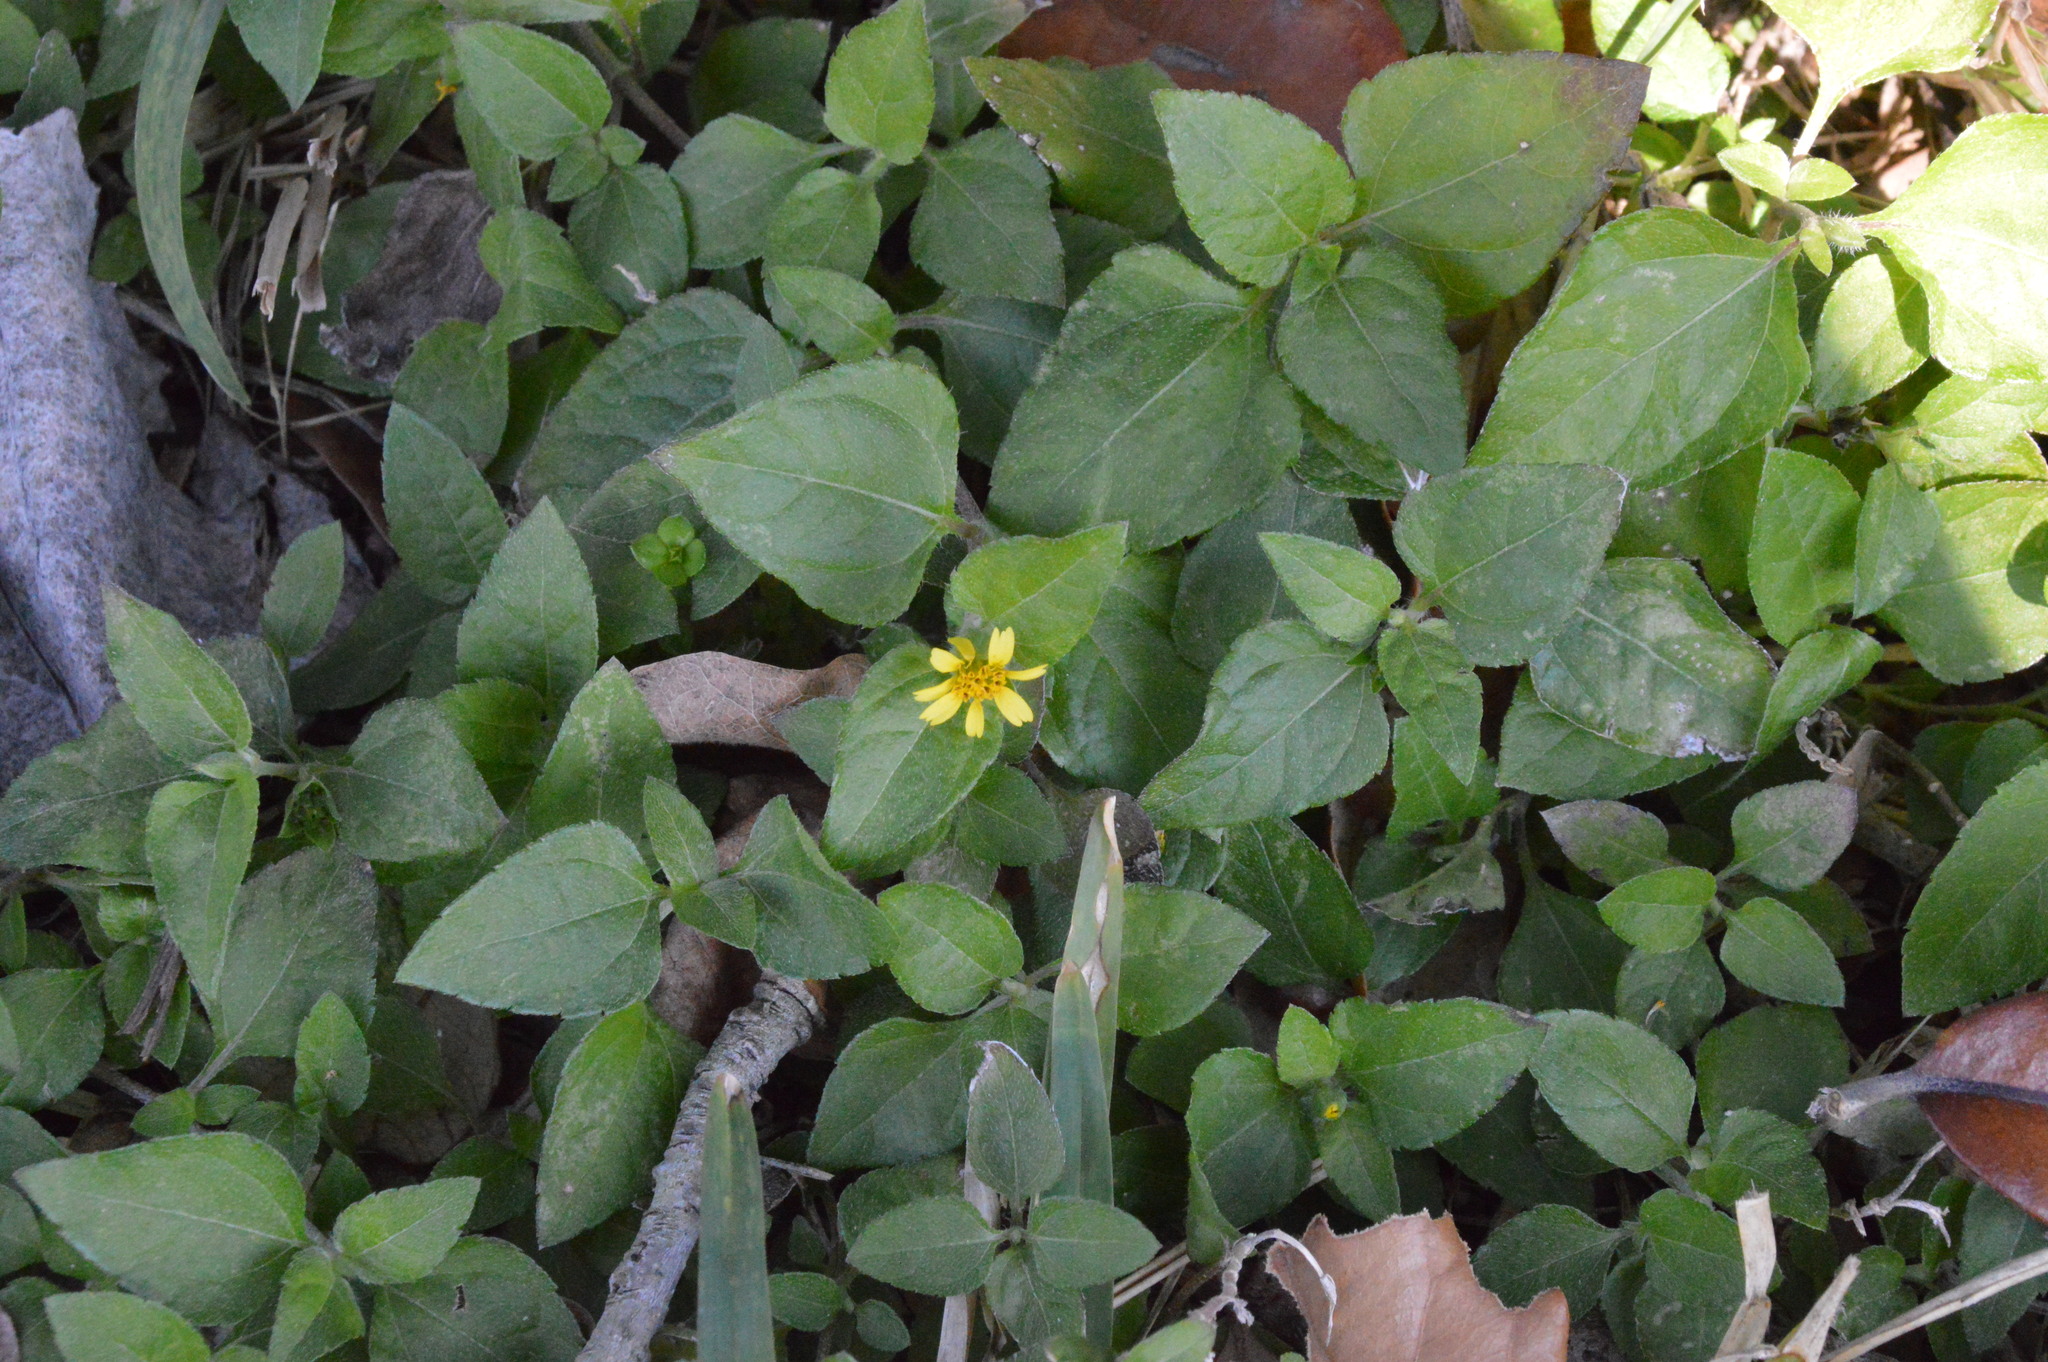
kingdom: Plantae
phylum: Tracheophyta
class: Magnoliopsida
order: Asterales
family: Asteraceae
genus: Calyptocarpus
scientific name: Calyptocarpus vialis
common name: Straggler daisy
